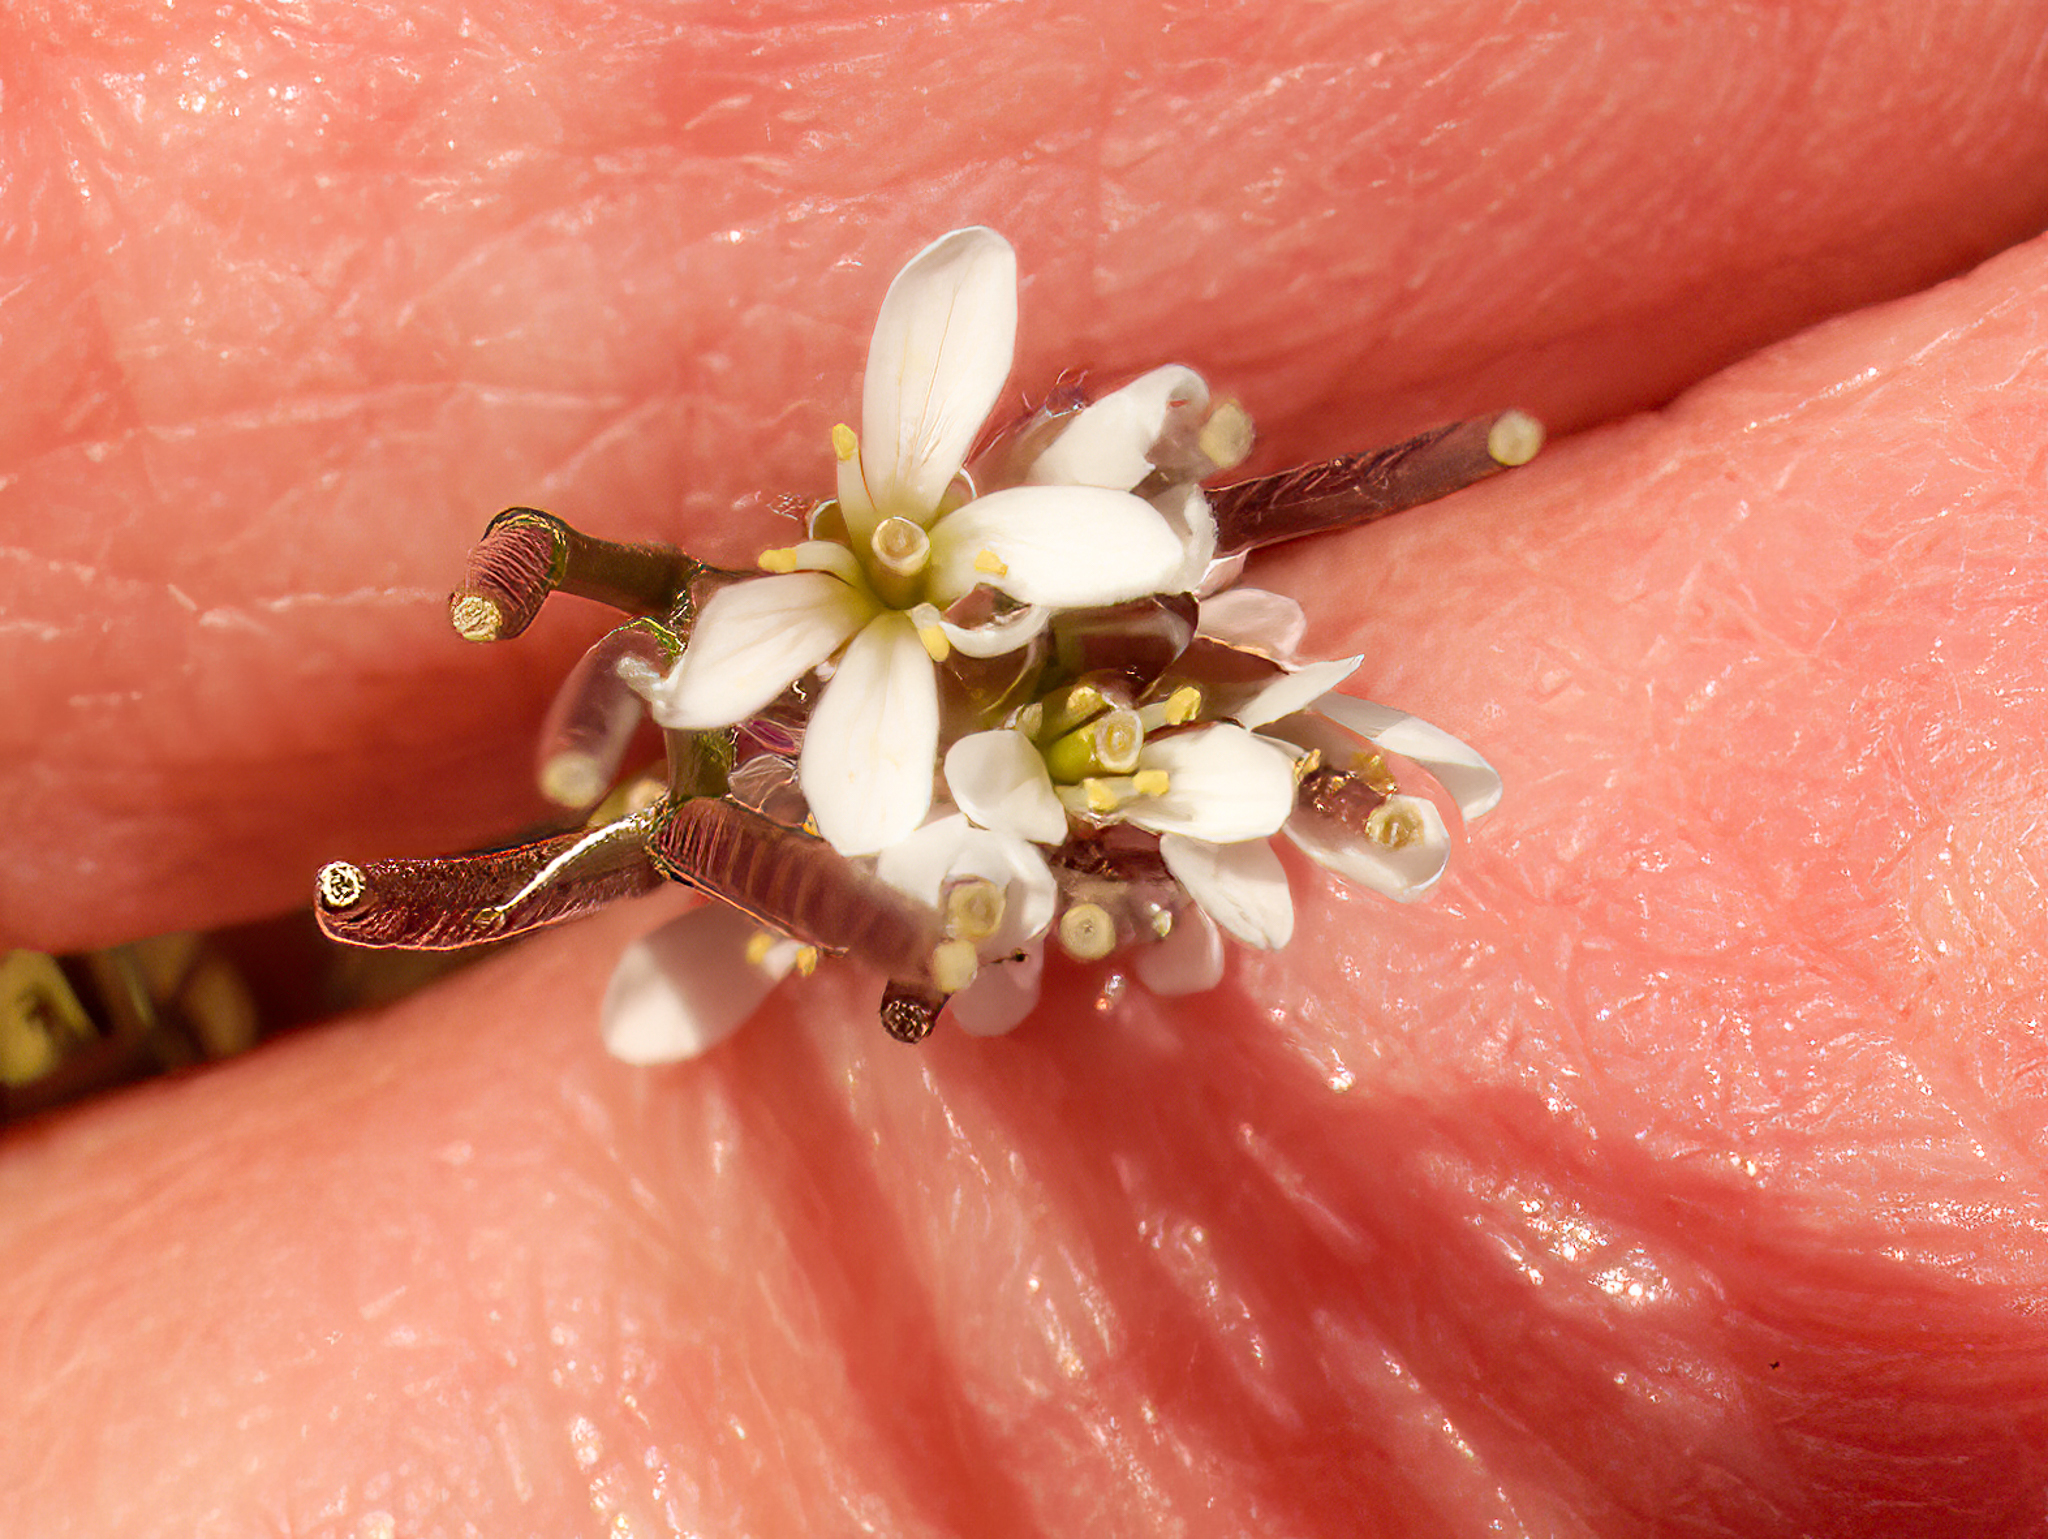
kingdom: Plantae
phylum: Tracheophyta
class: Magnoliopsida
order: Brassicales
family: Brassicaceae
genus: Cardamine
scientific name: Cardamine hirsuta
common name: Hairy bittercress
